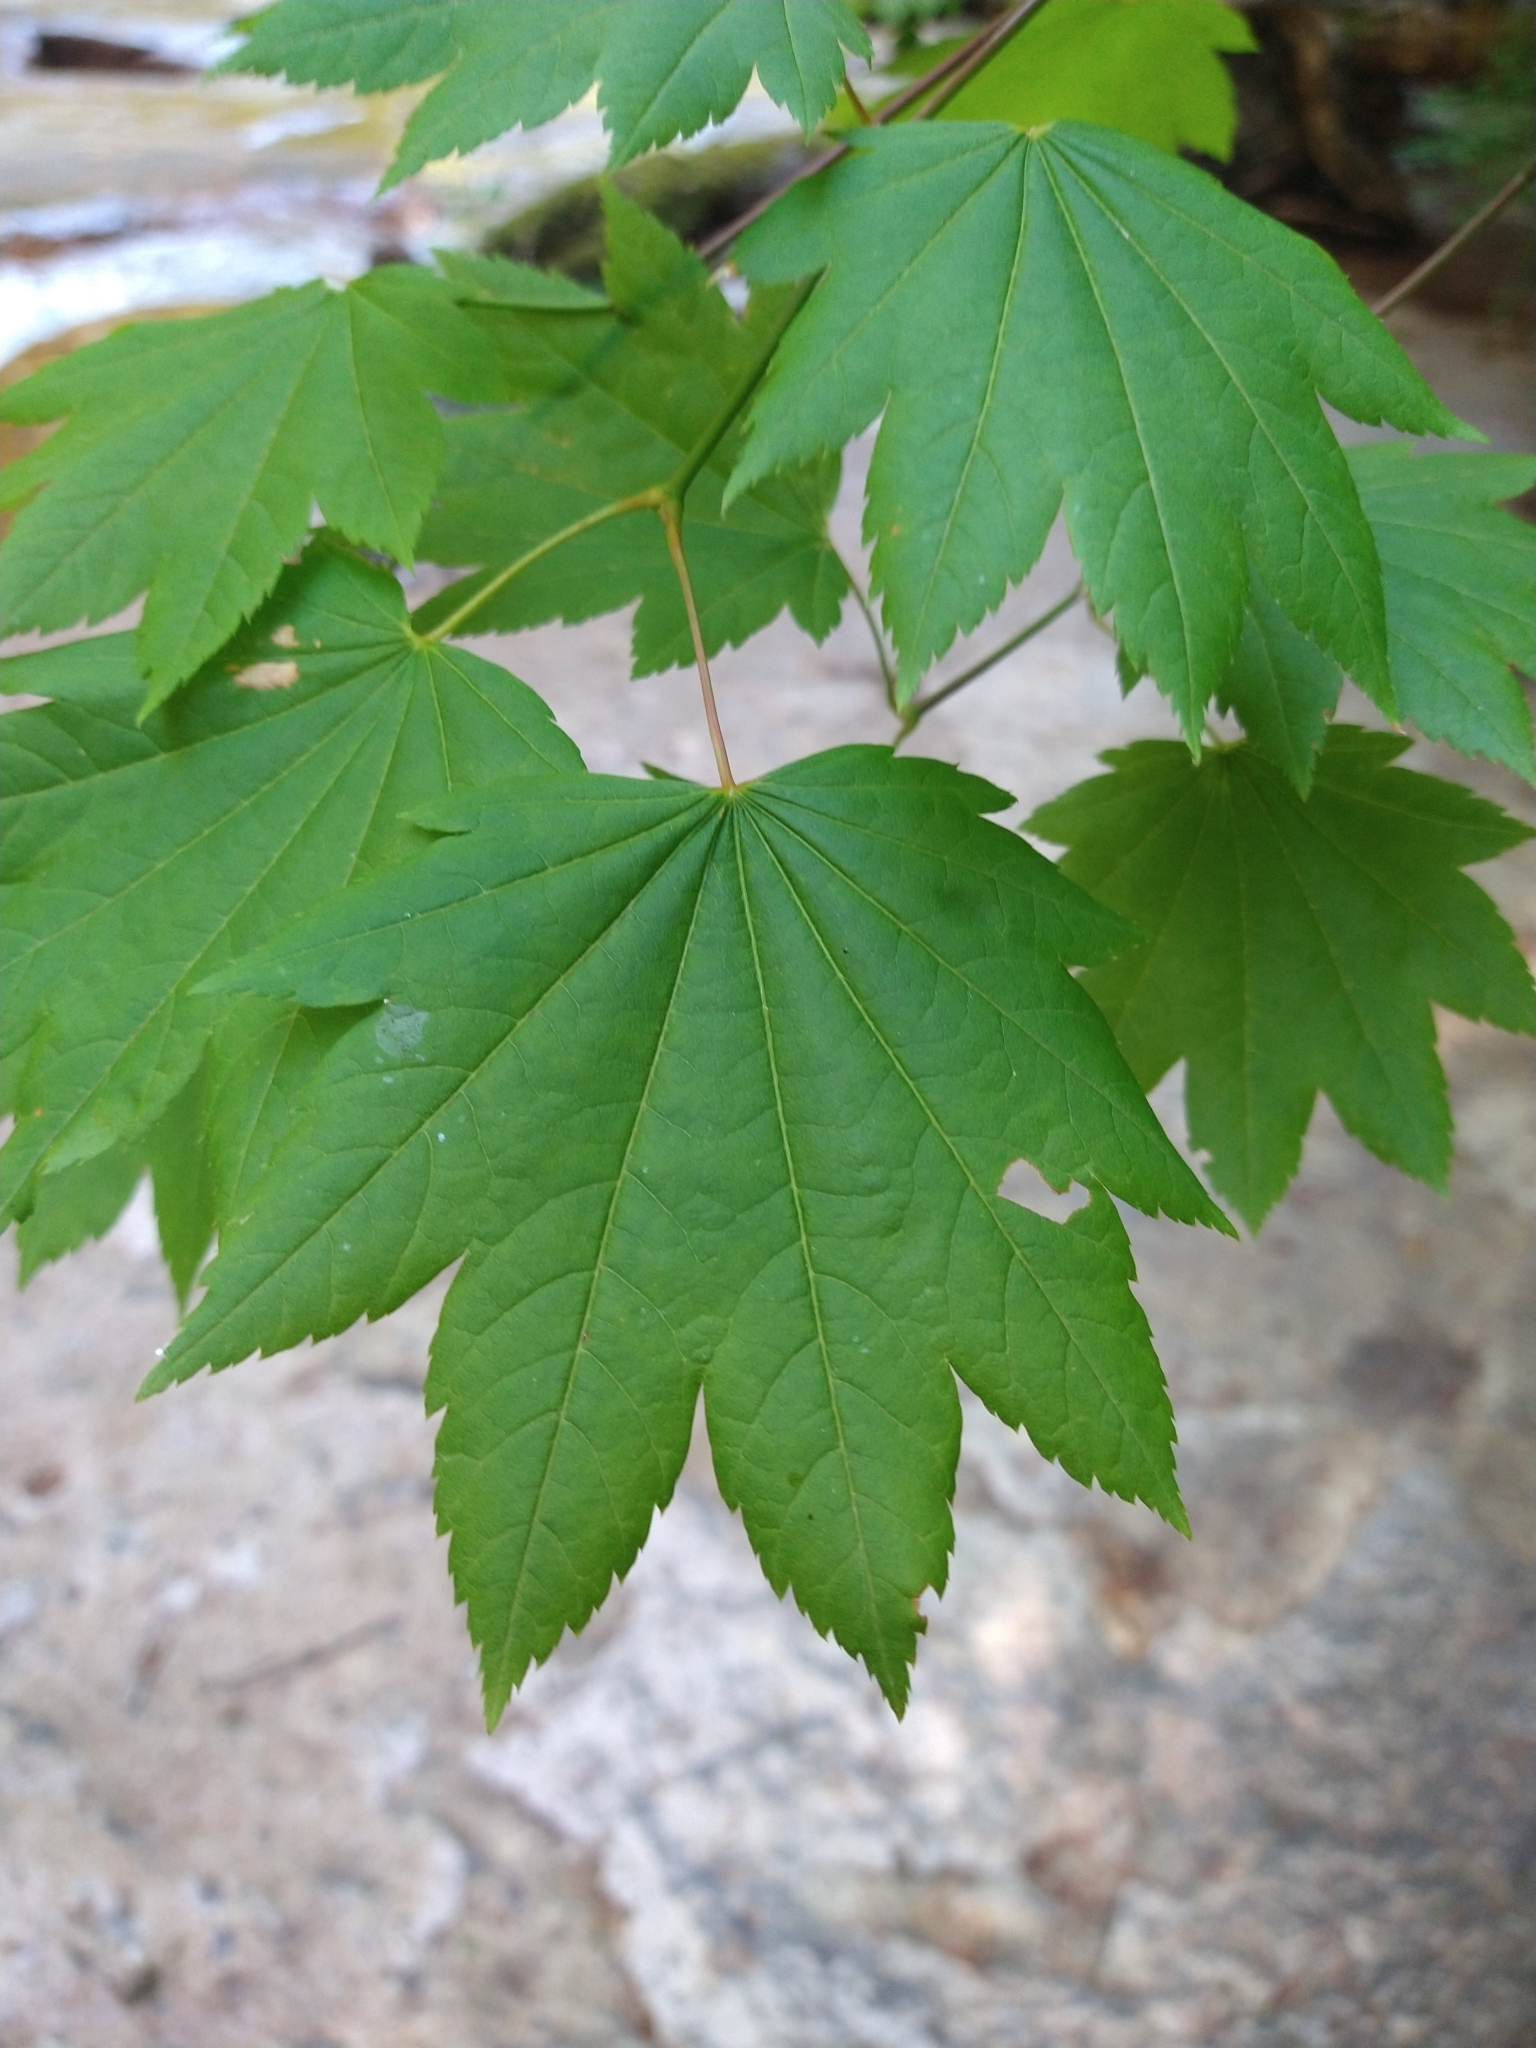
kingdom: Plantae
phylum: Tracheophyta
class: Magnoliopsida
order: Sapindales
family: Sapindaceae
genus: Acer
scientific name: Acer circinatum
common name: Vine maple
